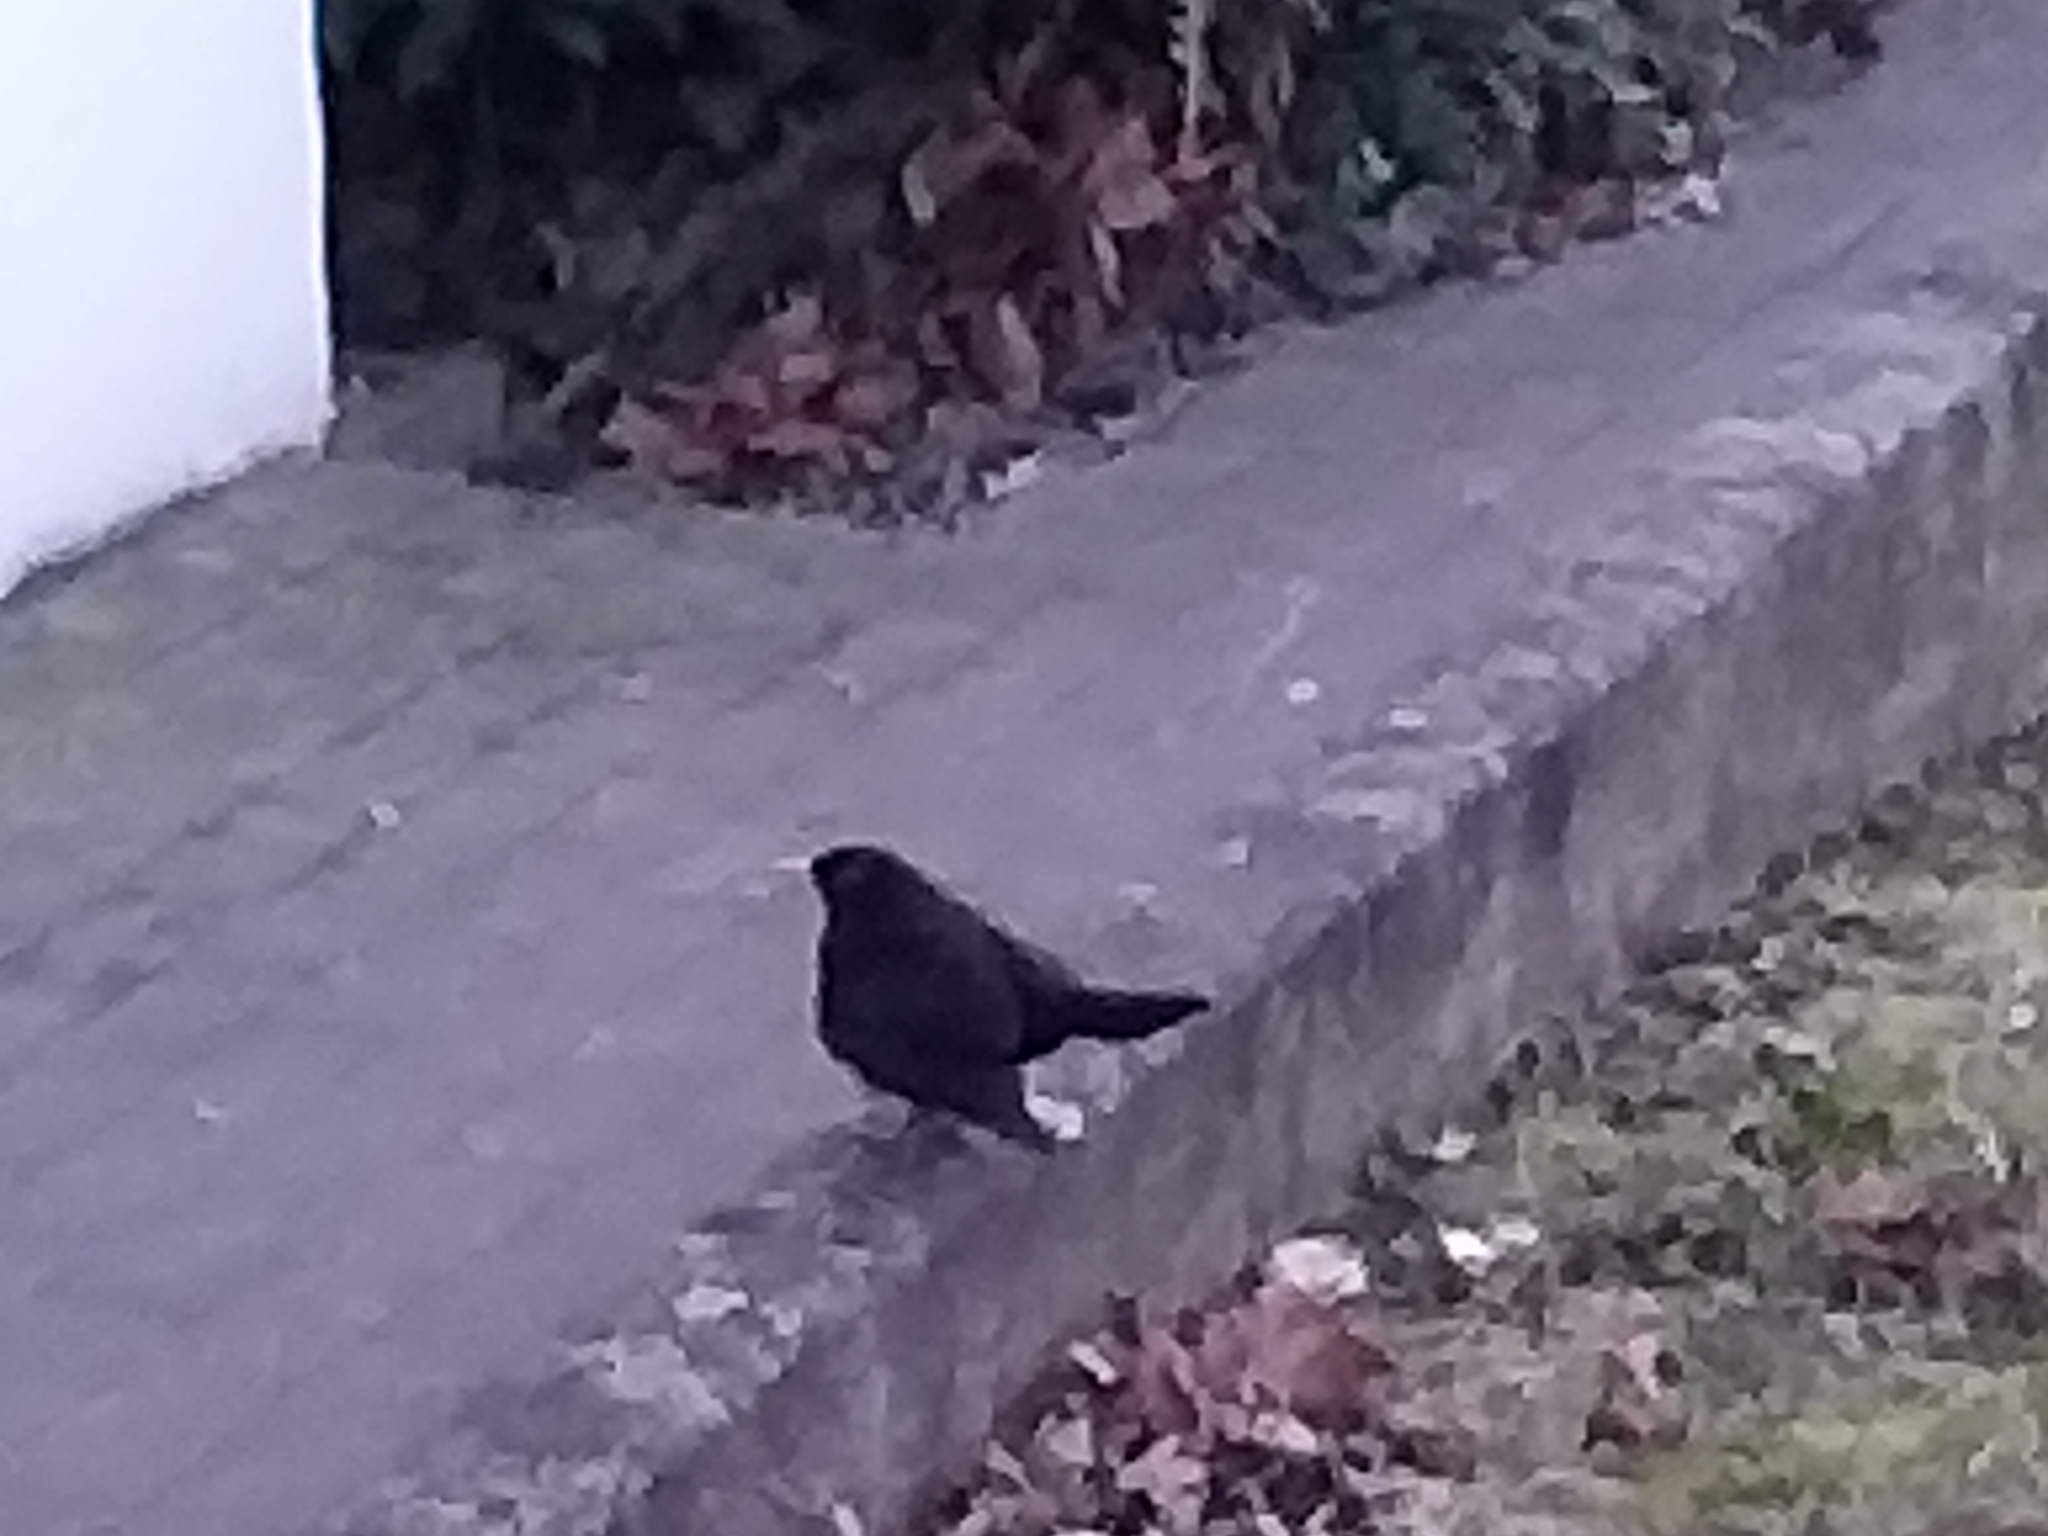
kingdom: Animalia
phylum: Chordata
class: Aves
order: Passeriformes
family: Turdidae
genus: Turdus
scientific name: Turdus merula
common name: Common blackbird
